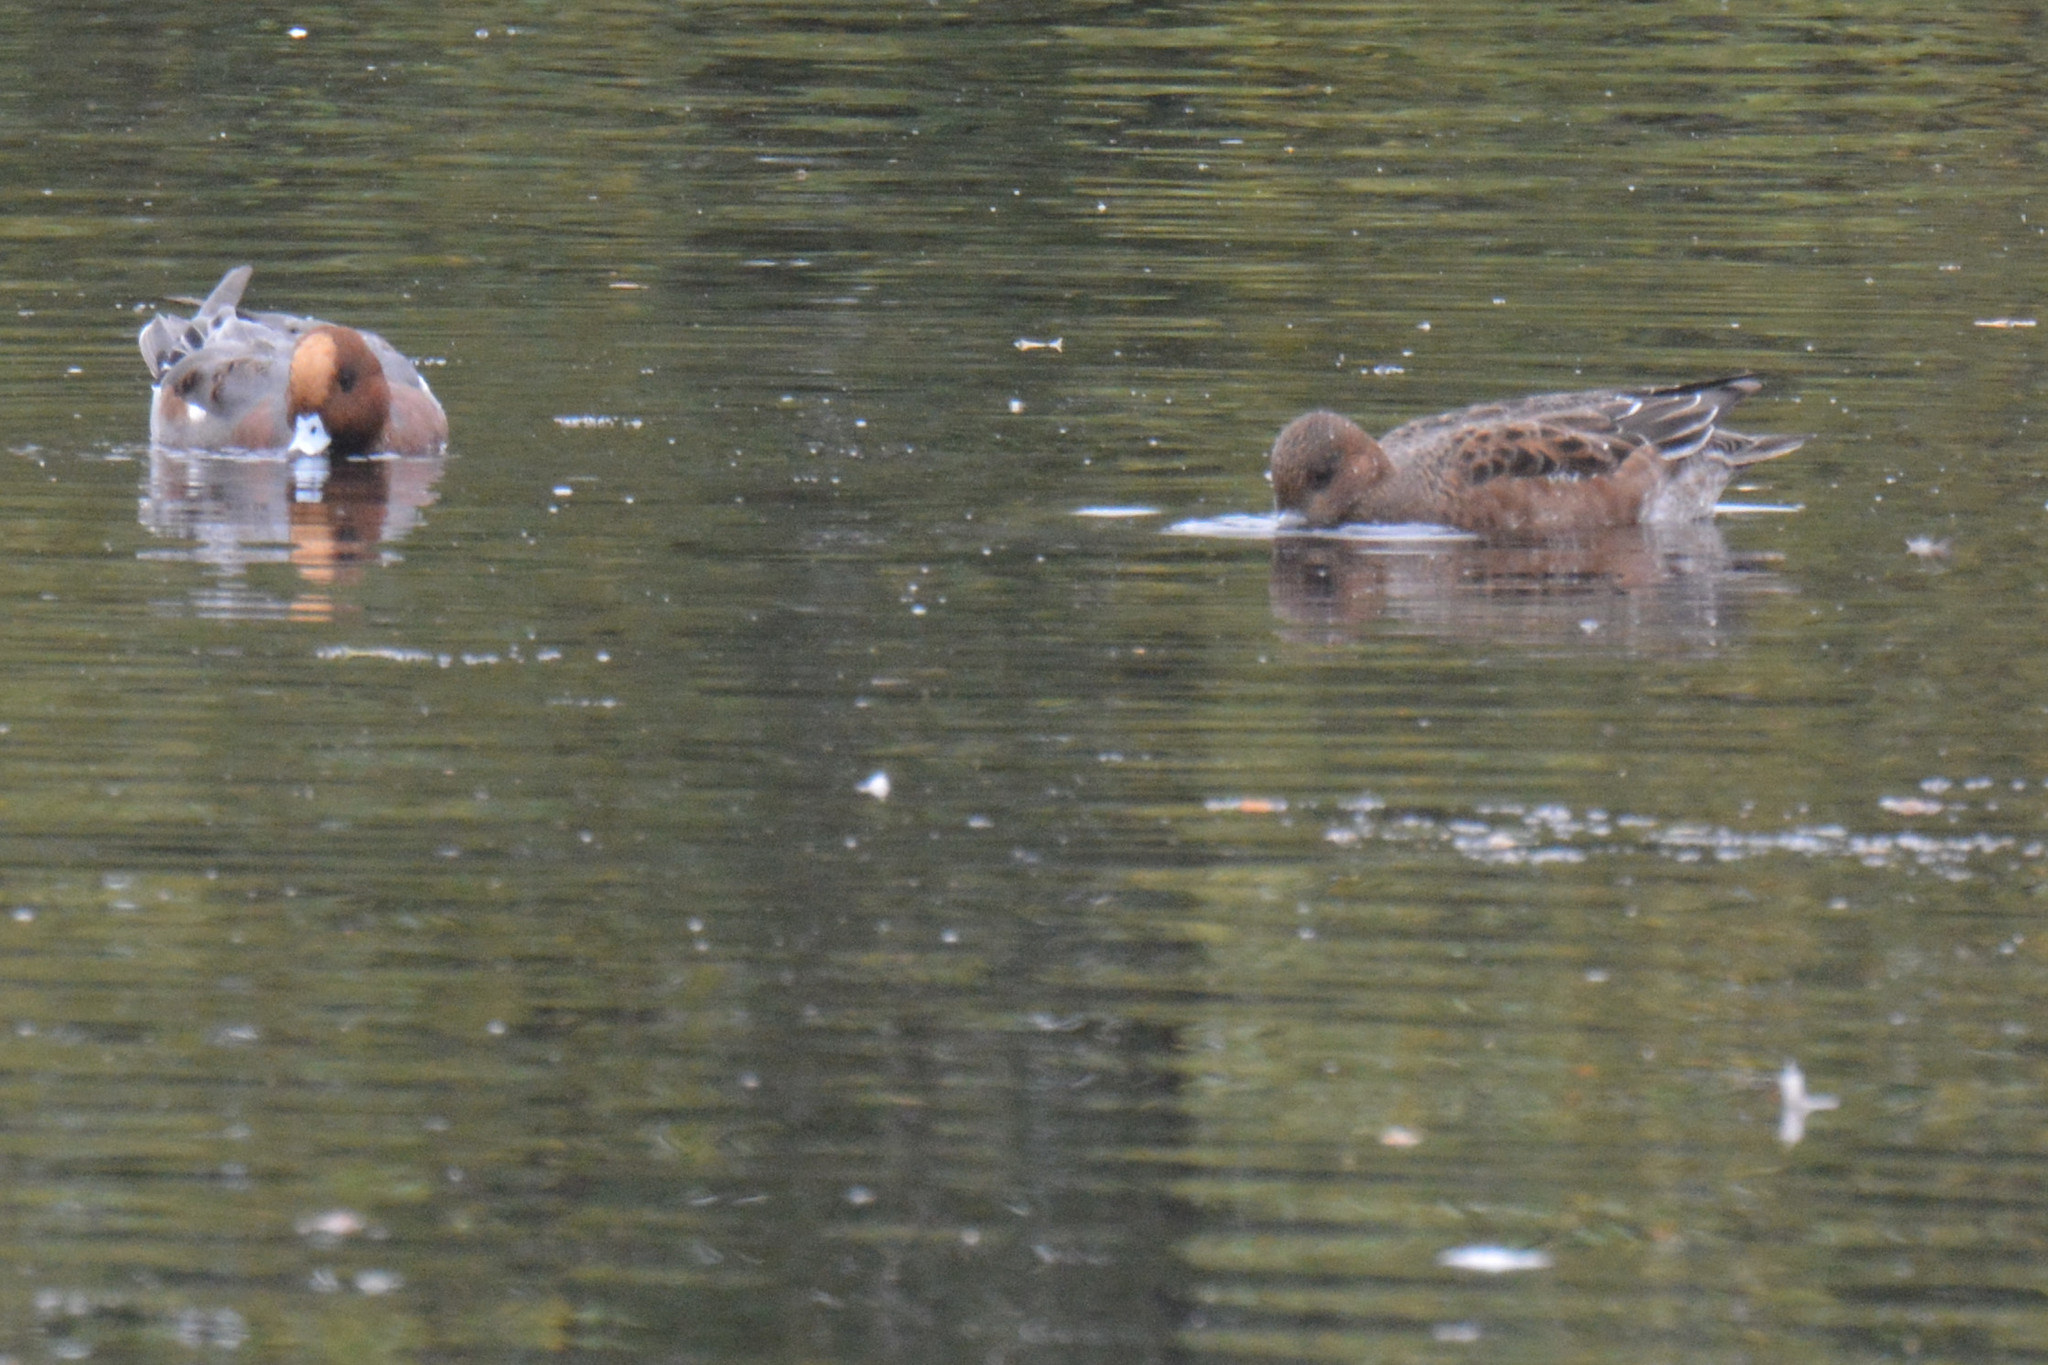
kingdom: Animalia
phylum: Chordata
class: Aves
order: Anseriformes
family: Anatidae
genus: Mareca
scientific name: Mareca penelope
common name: Eurasian wigeon
